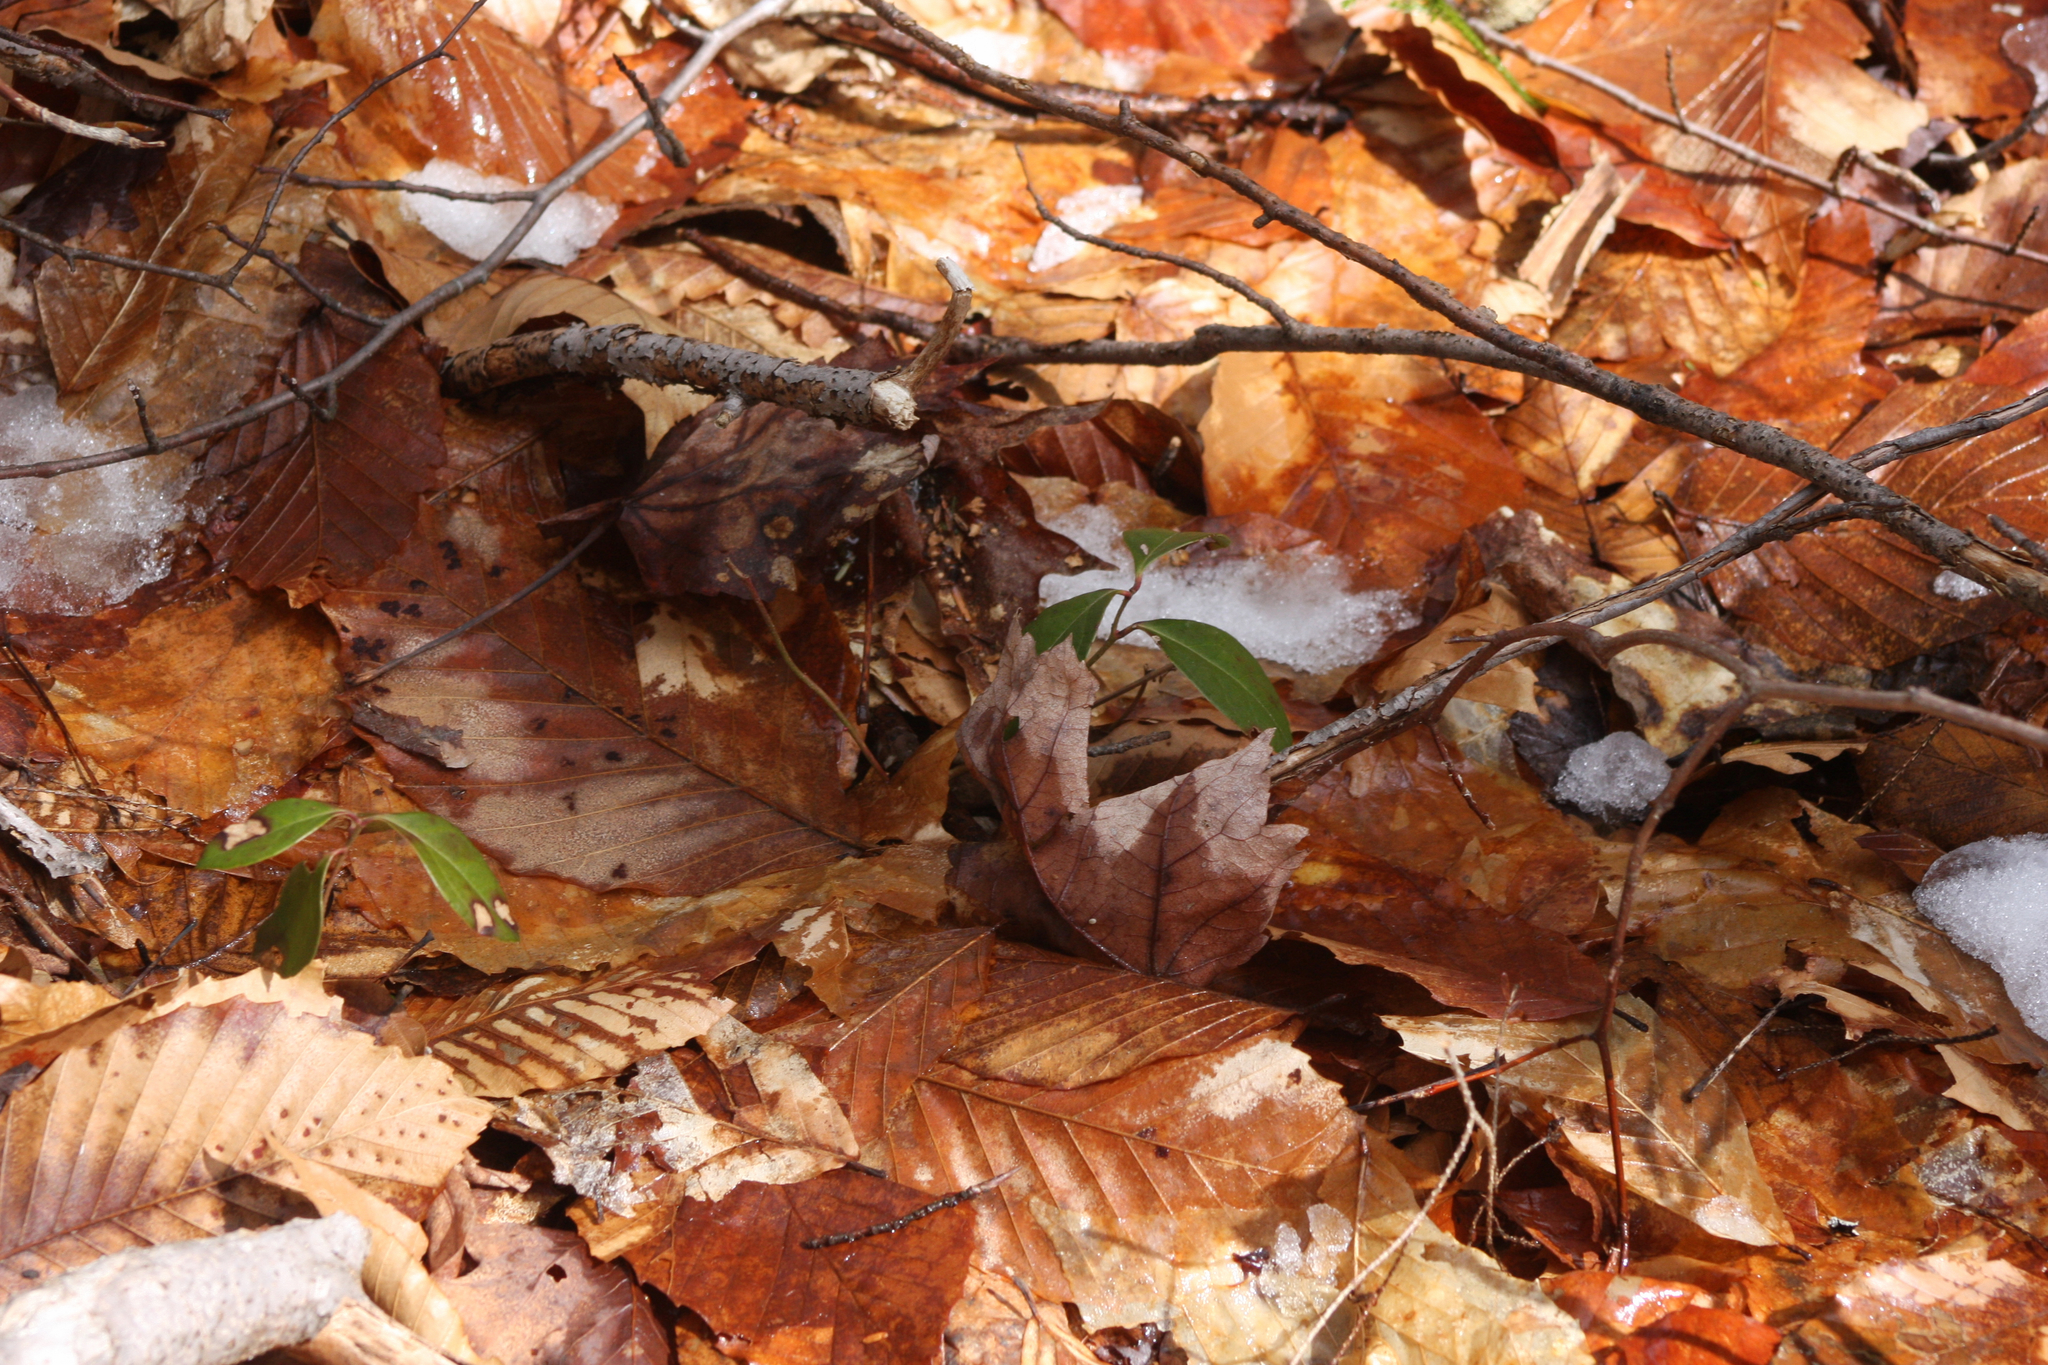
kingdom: Plantae
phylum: Tracheophyta
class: Magnoliopsida
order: Ericales
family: Ericaceae
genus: Gaultheria
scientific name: Gaultheria procumbens
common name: Checkerberry
